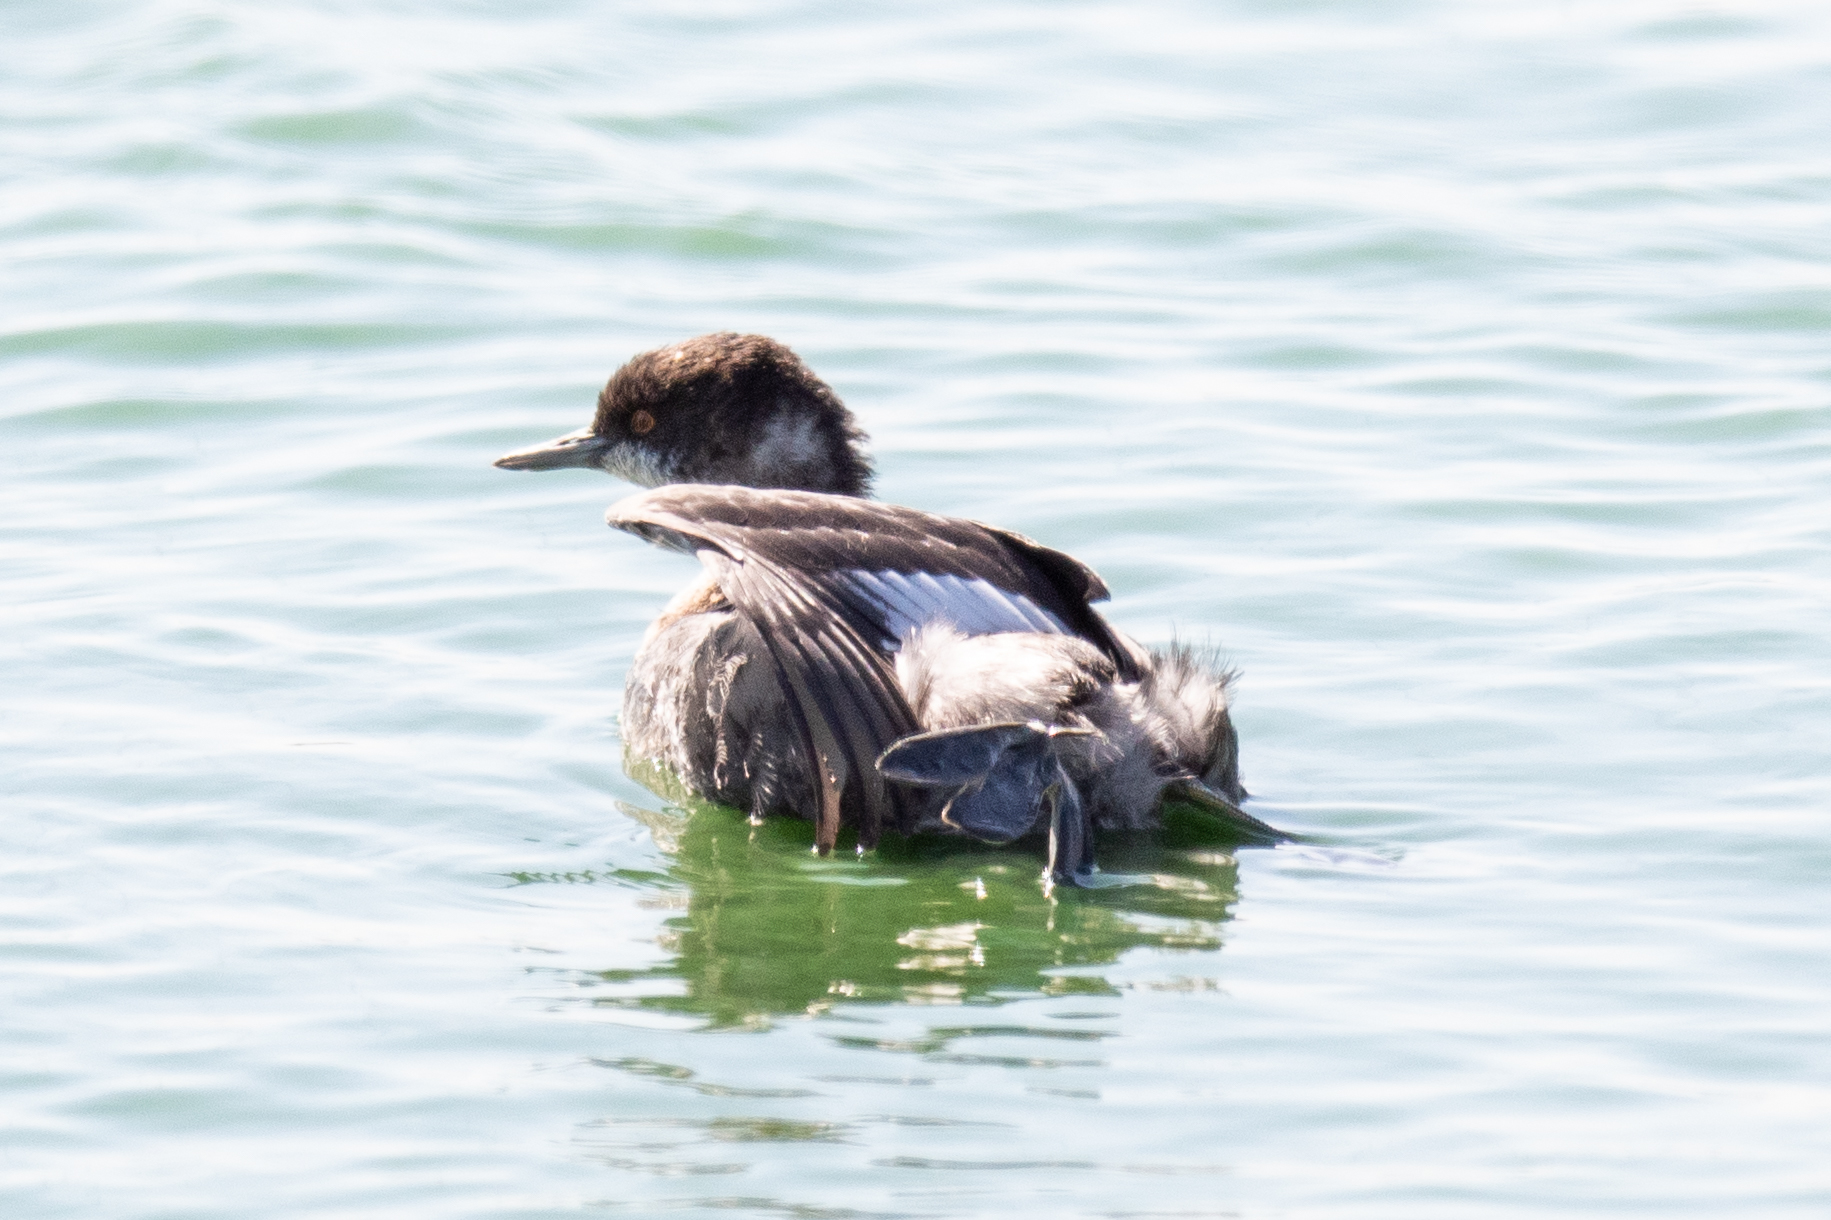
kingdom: Animalia
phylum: Chordata
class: Aves
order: Podicipediformes
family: Podicipedidae
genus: Podiceps
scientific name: Podiceps nigricollis
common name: Black-necked grebe
